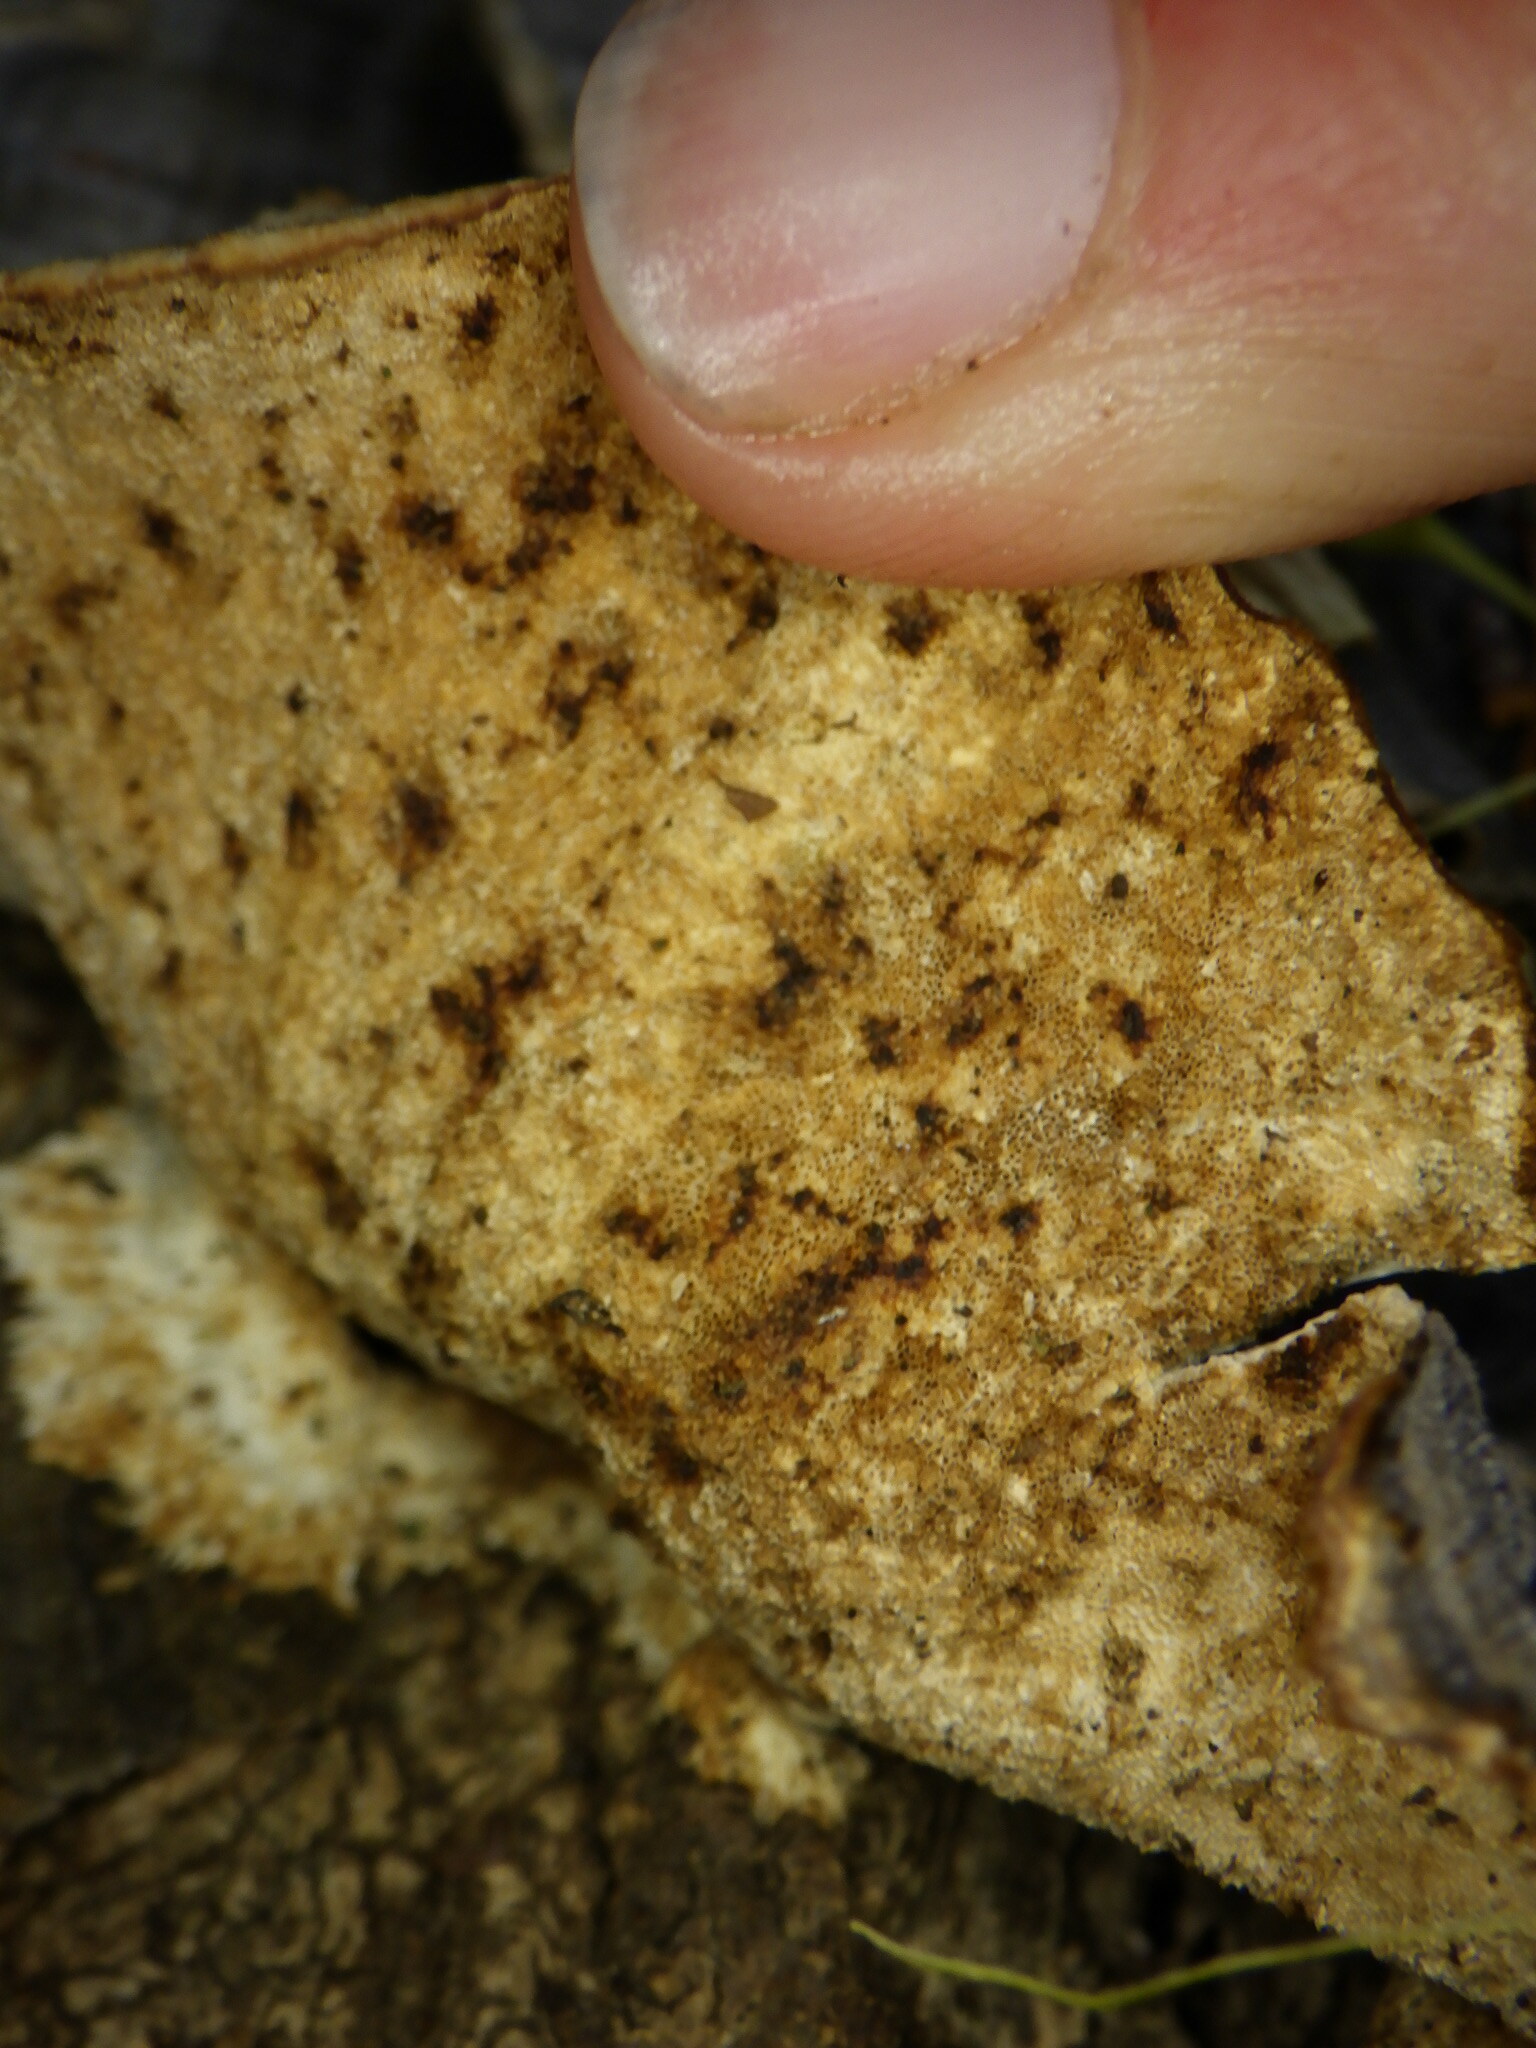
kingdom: Fungi
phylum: Basidiomycota
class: Agaricomycetes
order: Polyporales
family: Polyporaceae
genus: Trametes
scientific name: Trametes versicolor
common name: Turkeytail
